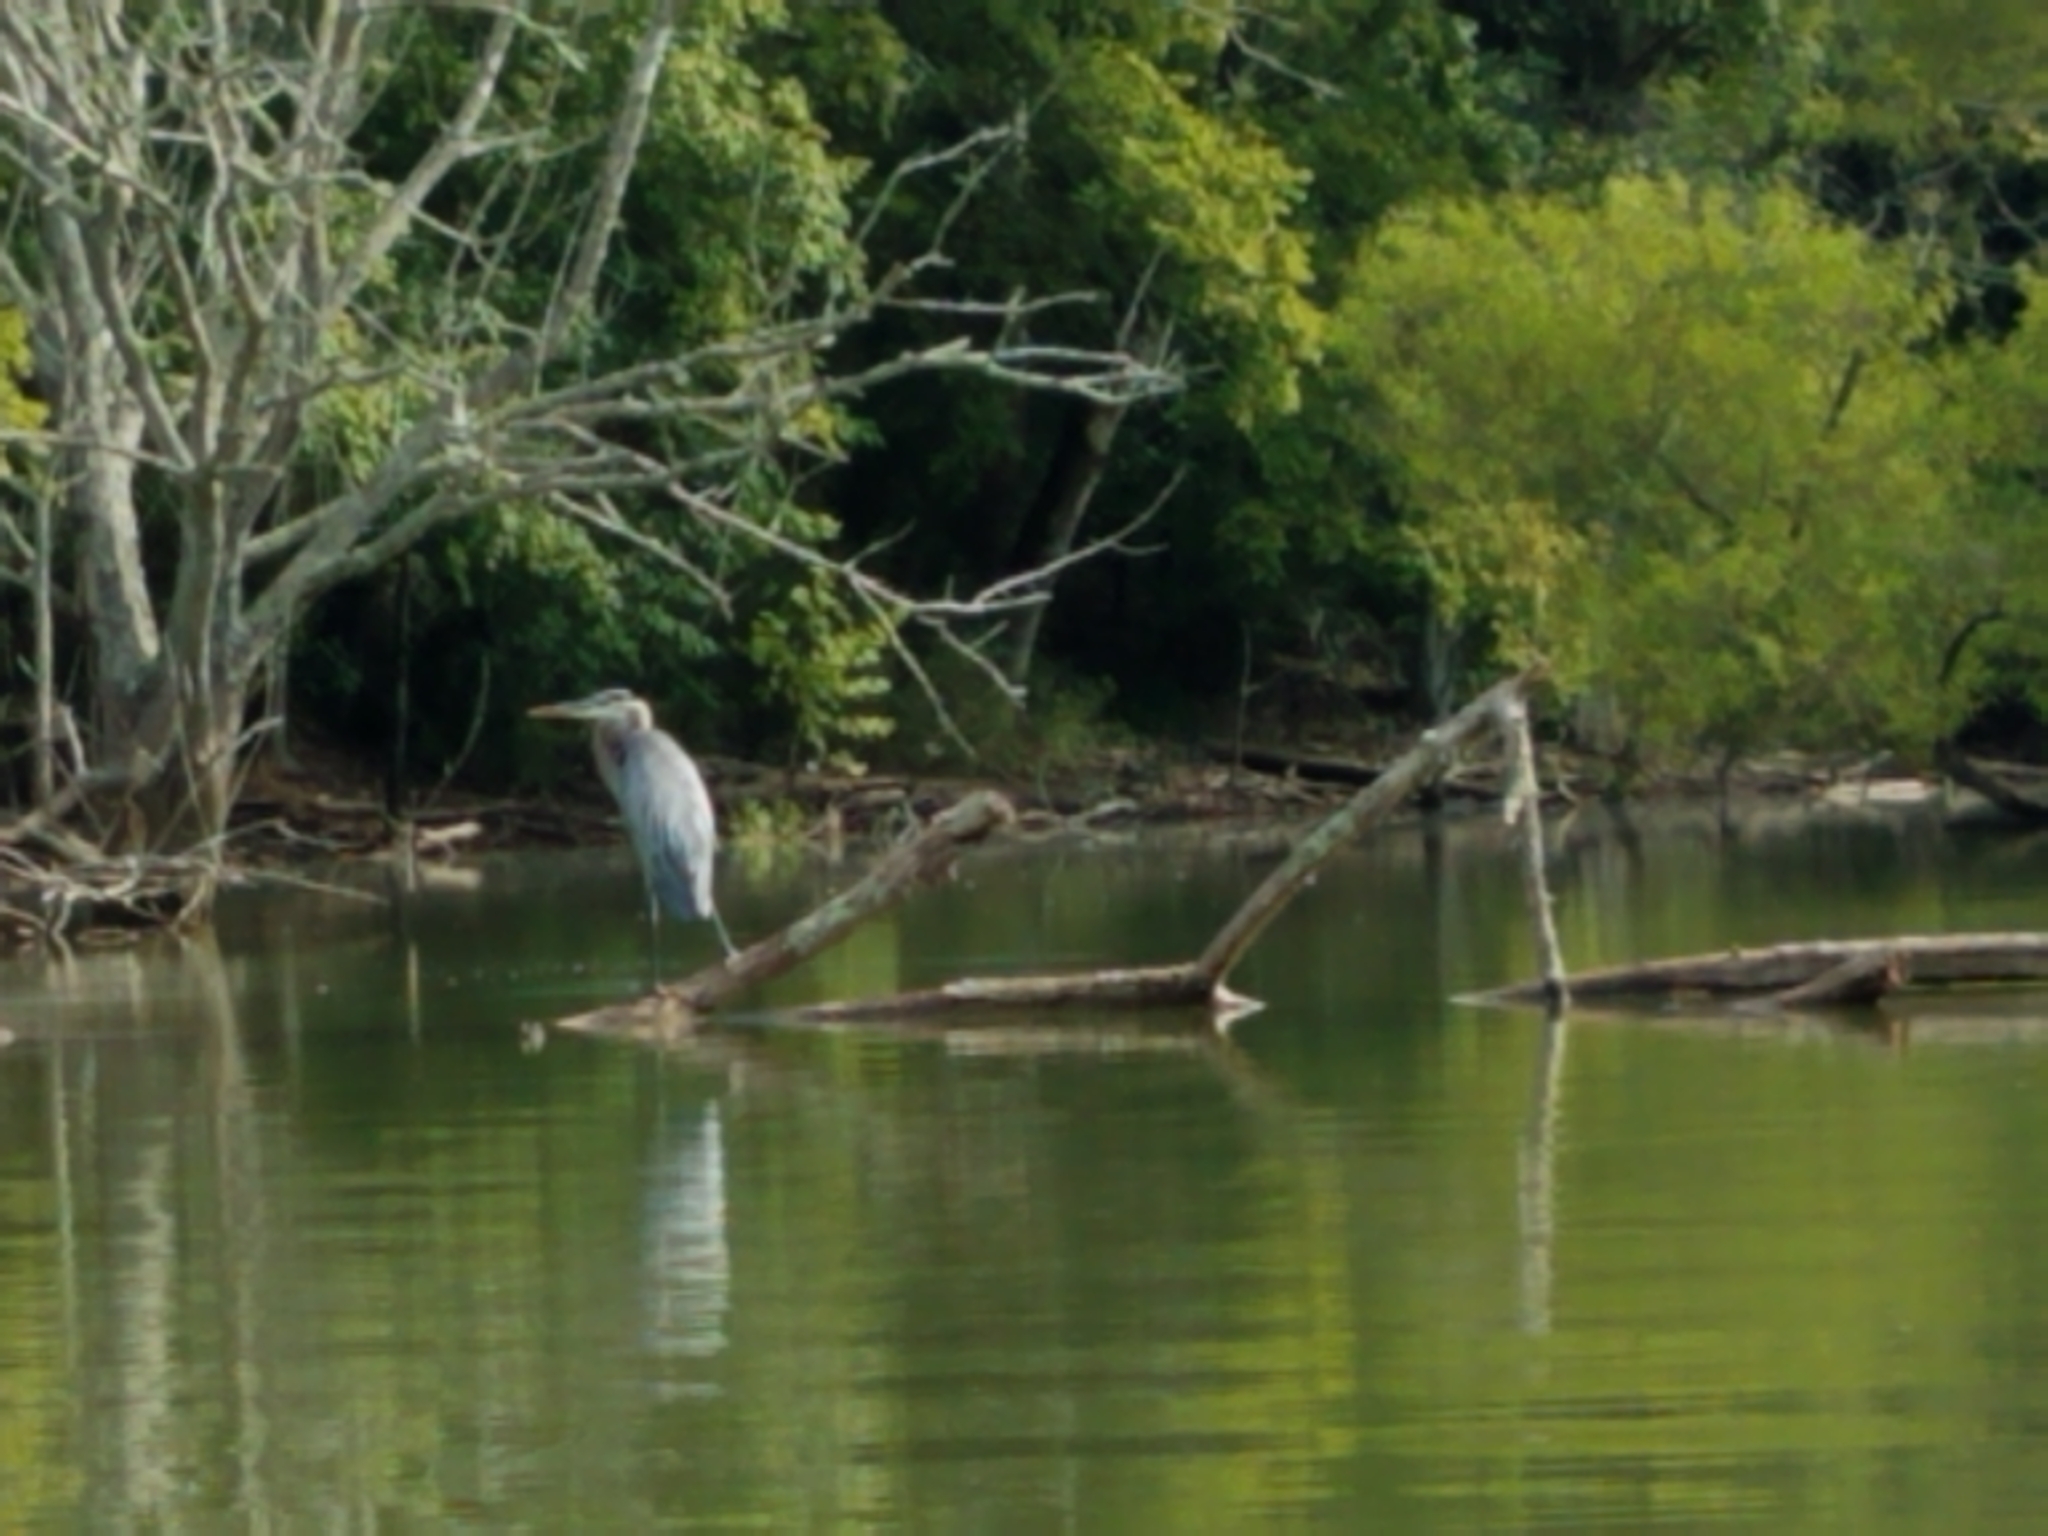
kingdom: Animalia
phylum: Chordata
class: Aves
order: Pelecaniformes
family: Ardeidae
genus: Ardea
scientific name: Ardea herodias
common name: Great blue heron
